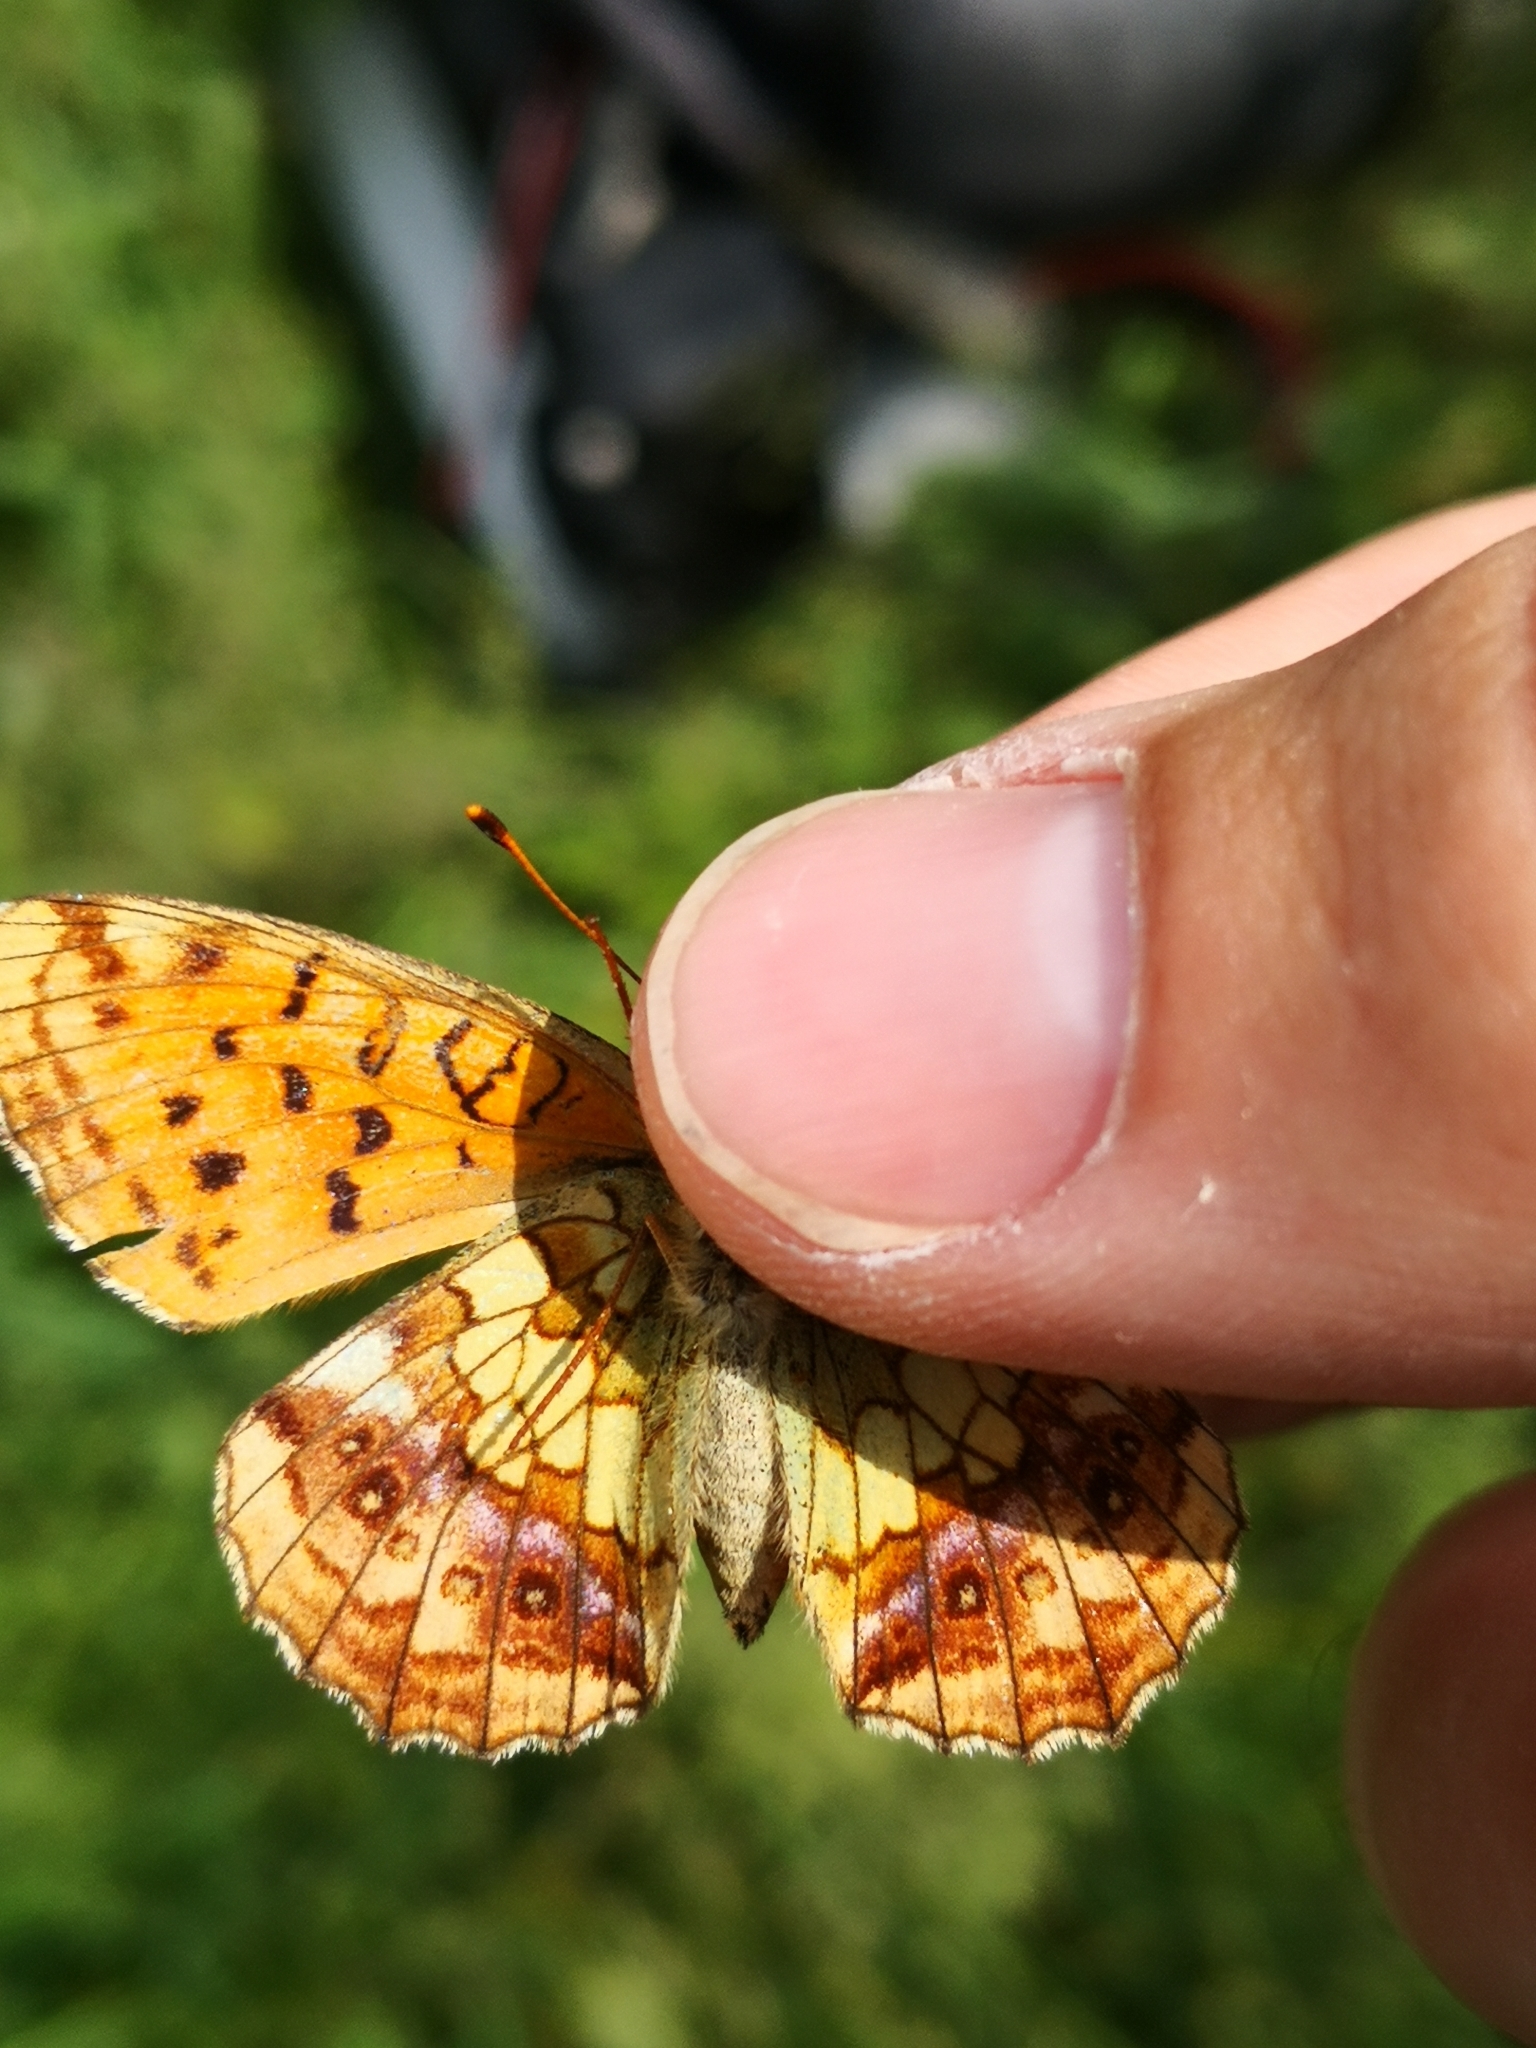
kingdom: Animalia
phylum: Arthropoda
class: Insecta
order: Lepidoptera
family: Nymphalidae
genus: Brenthis
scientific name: Brenthis ino
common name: Lesser marbled fritillary
